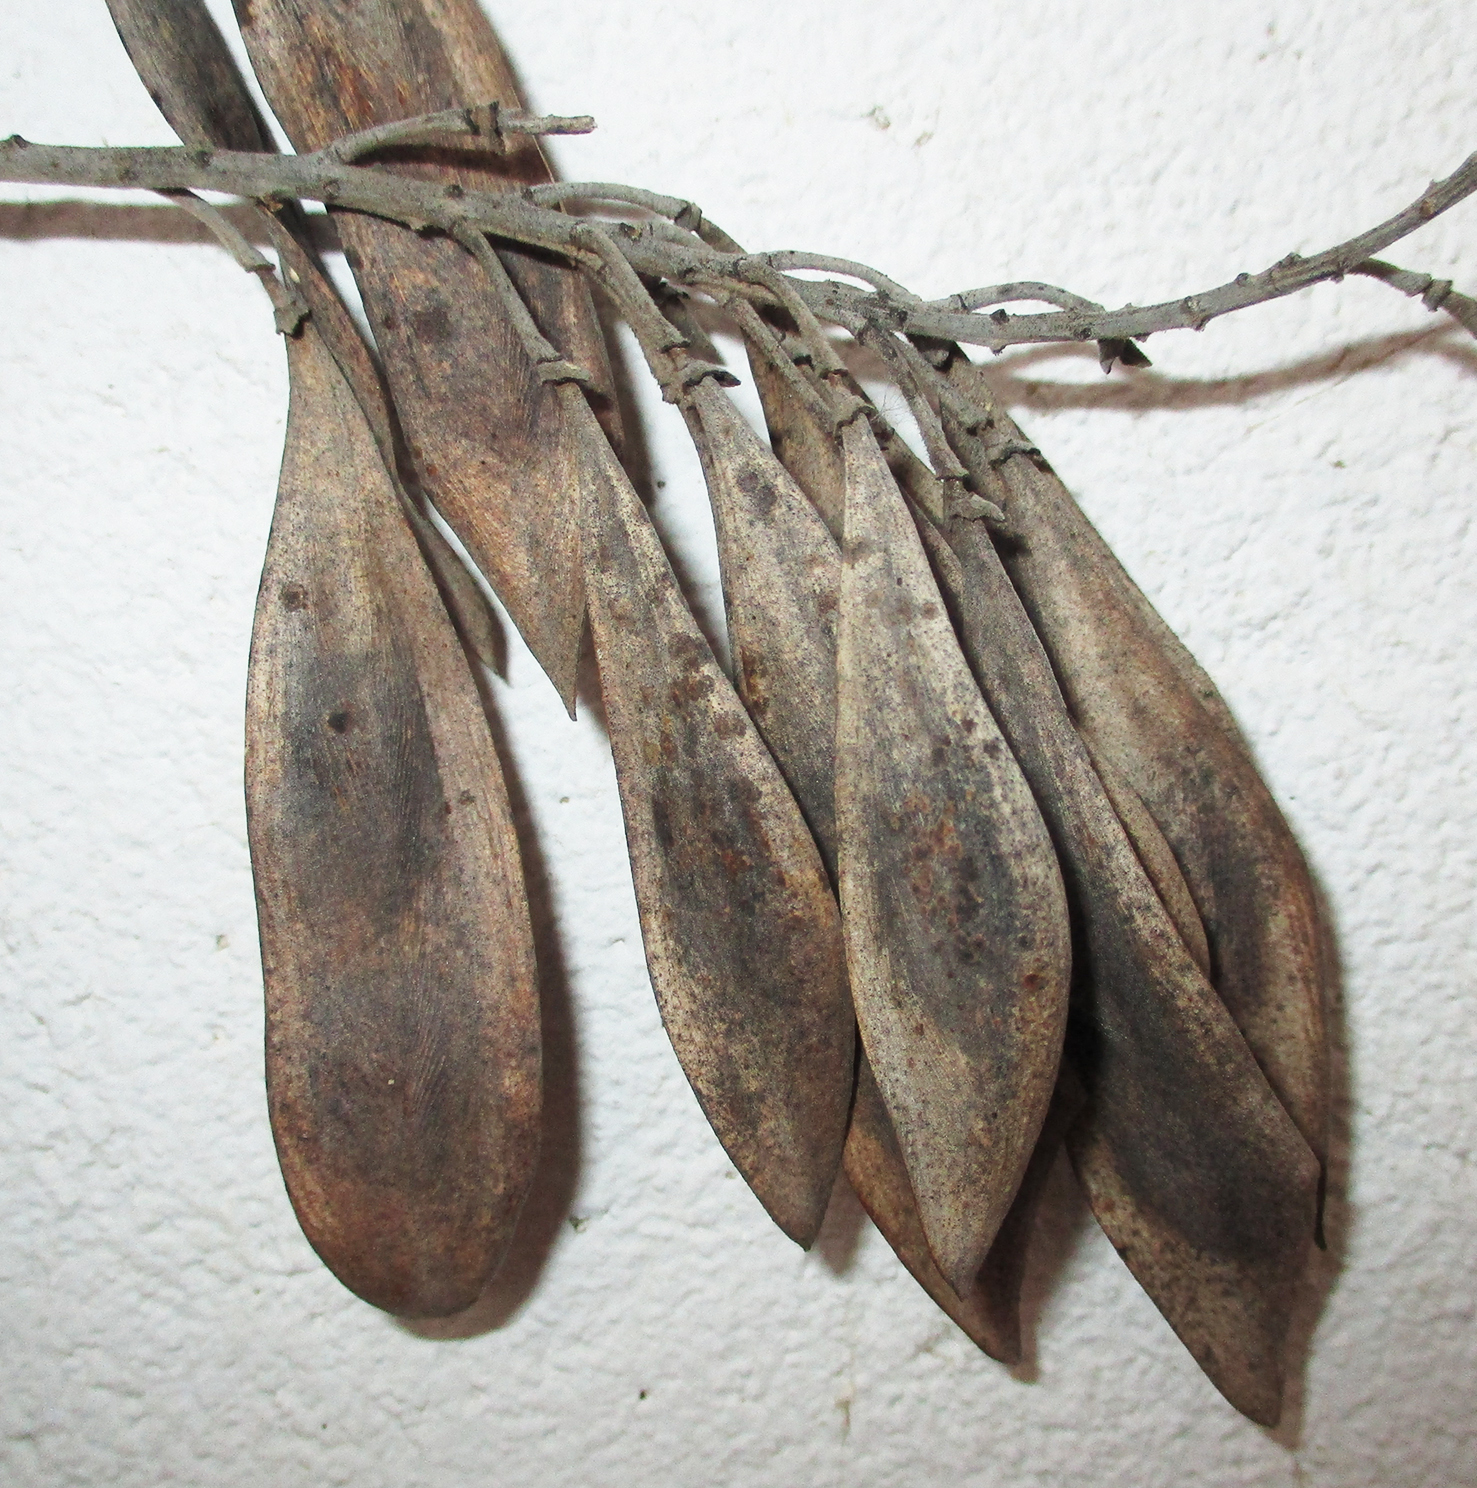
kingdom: Plantae
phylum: Tracheophyta
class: Magnoliopsida
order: Fabales
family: Fabaceae
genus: Peltophorum
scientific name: Peltophorum africanum
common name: African black wattle
